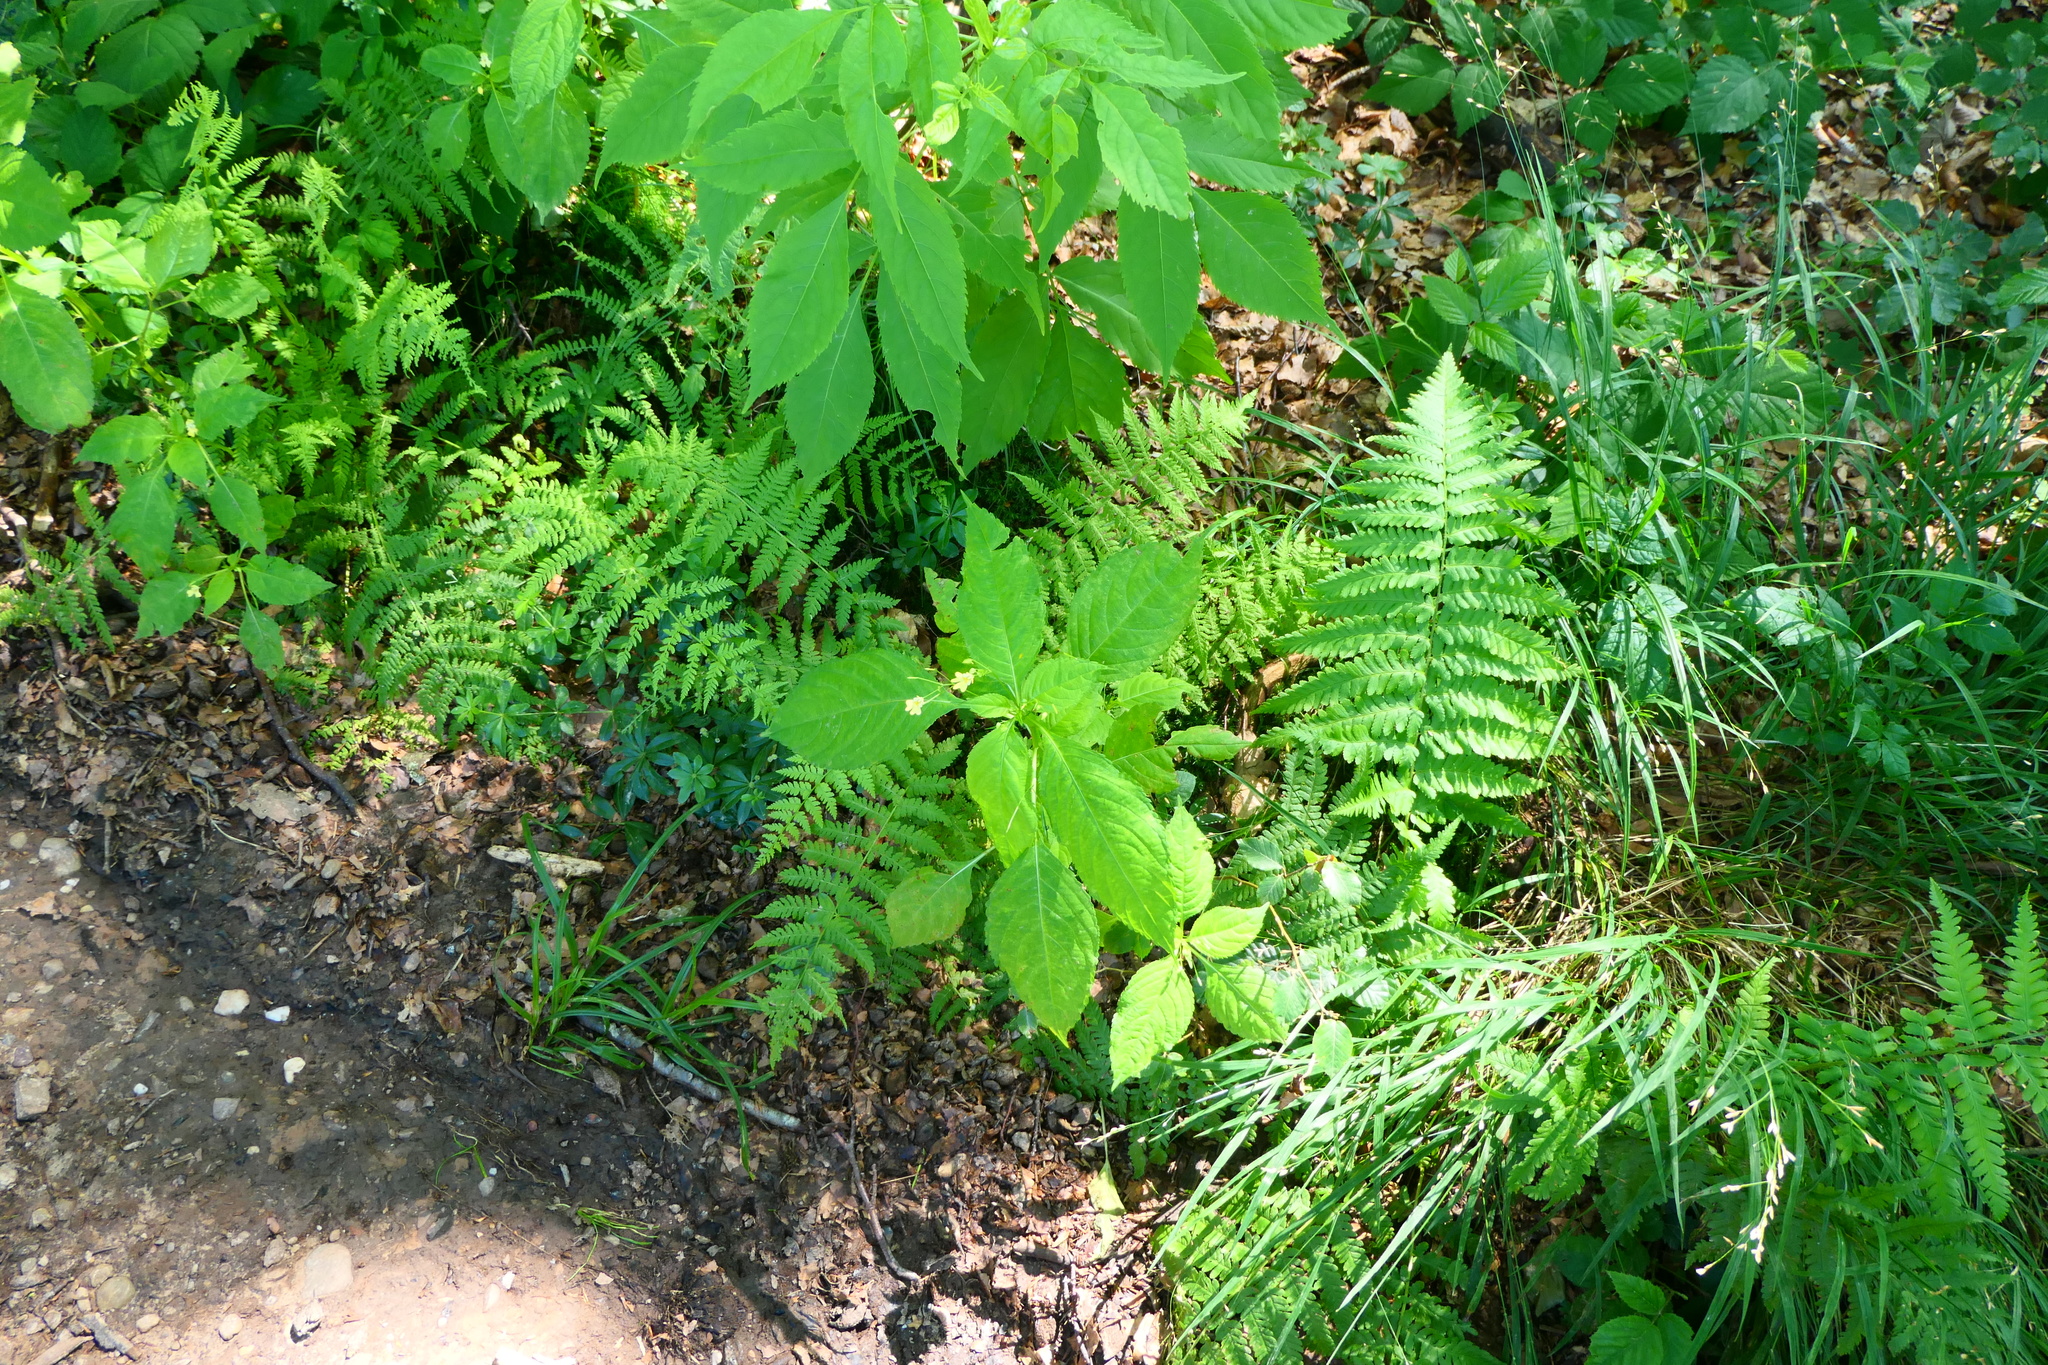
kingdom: Plantae
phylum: Tracheophyta
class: Magnoliopsida
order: Ericales
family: Balsaminaceae
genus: Impatiens
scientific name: Impatiens parviflora
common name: Small balsam
